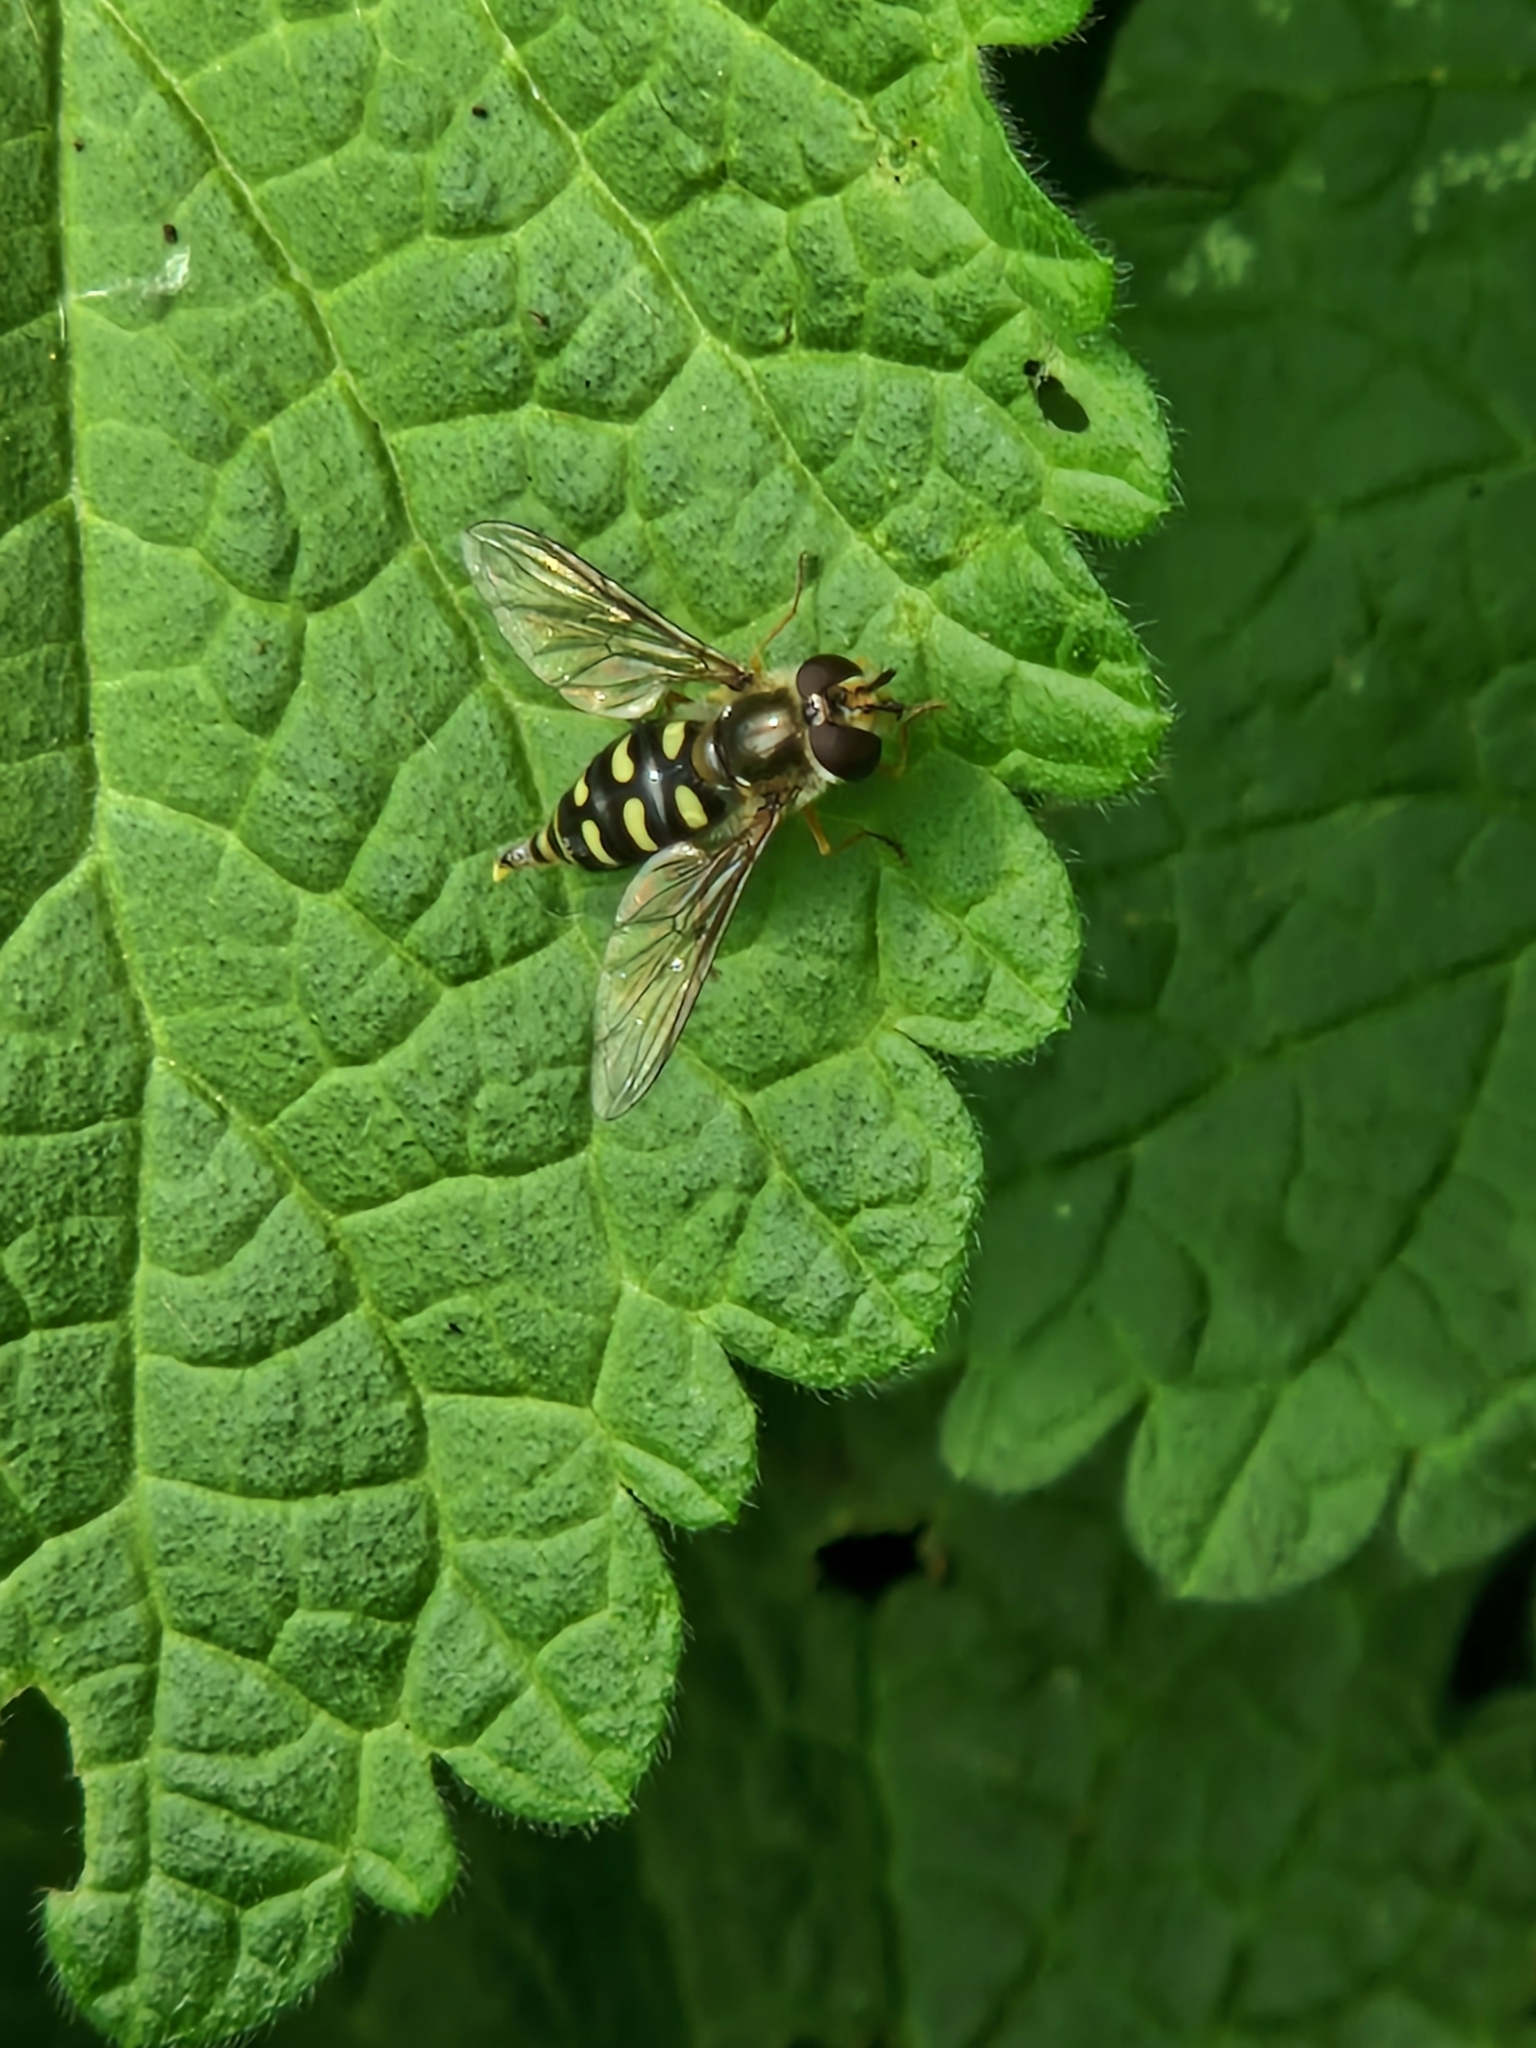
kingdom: Animalia
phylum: Arthropoda
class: Insecta
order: Diptera
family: Syrphidae
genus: Eupeodes
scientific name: Eupeodes
